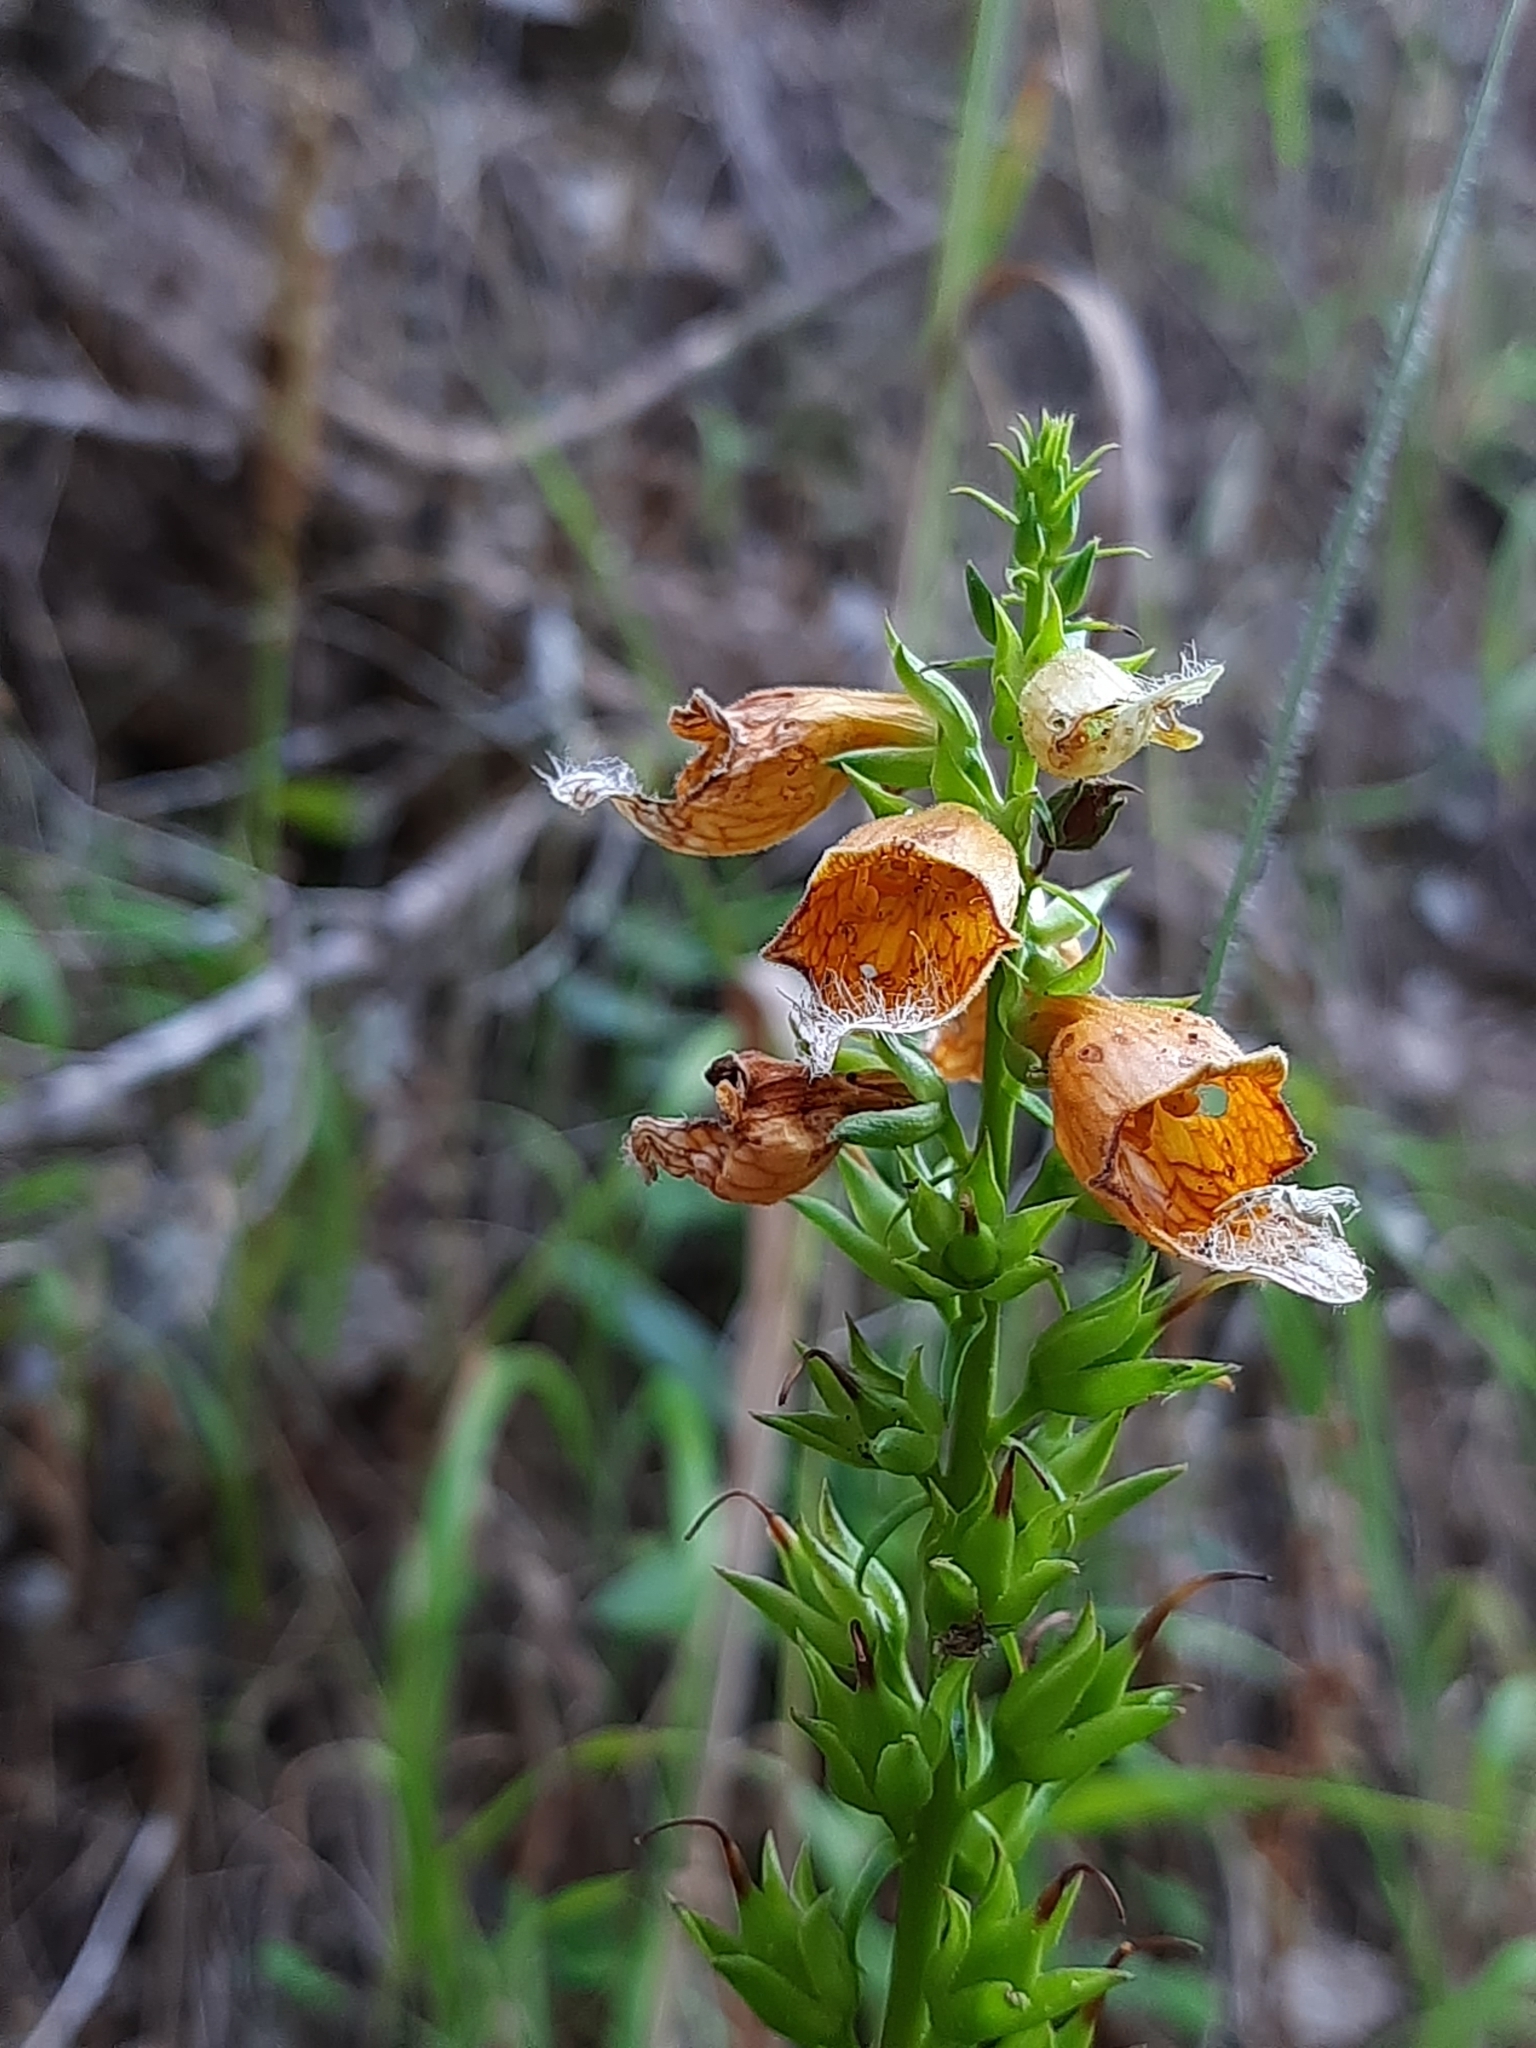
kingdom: Plantae
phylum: Tracheophyta
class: Magnoliopsida
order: Lamiales
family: Plantaginaceae
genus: Digitalis
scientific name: Digitalis laevigata
